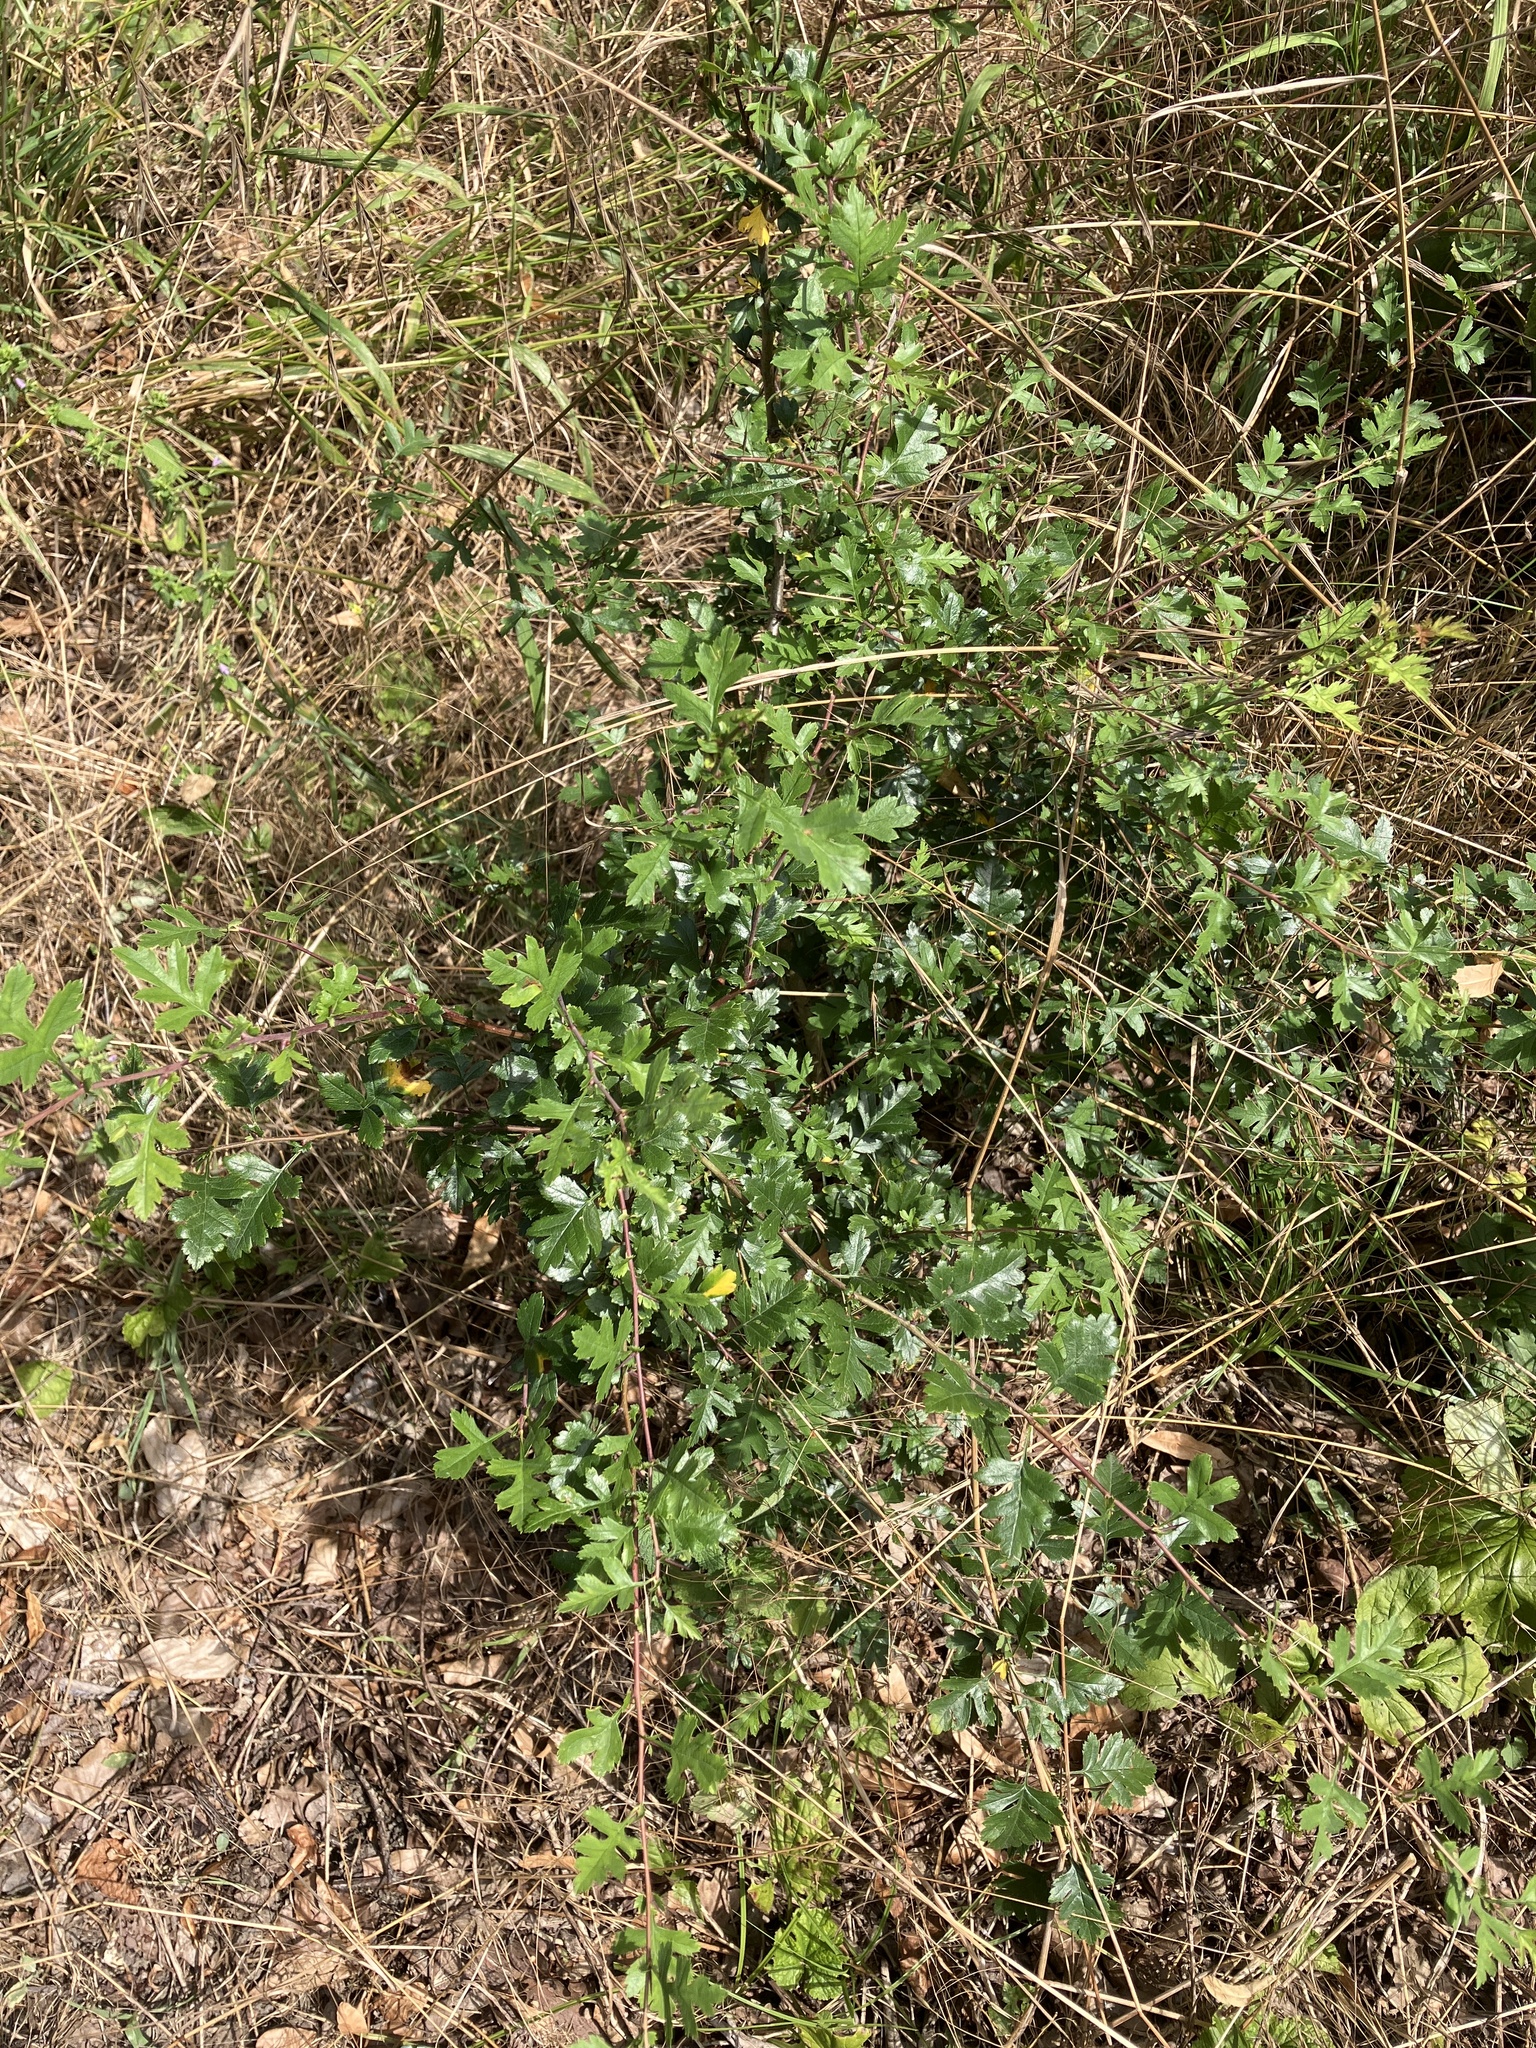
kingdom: Plantae
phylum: Tracheophyta
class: Magnoliopsida
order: Rosales
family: Rosaceae
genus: Crataegus
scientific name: Crataegus monogyna
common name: Hawthorn
